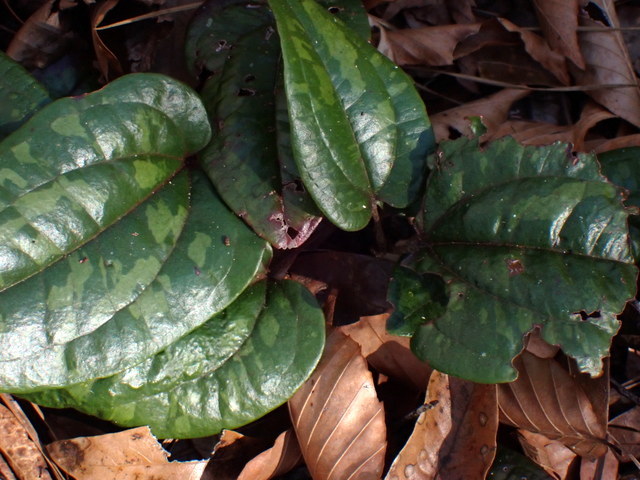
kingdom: Plantae
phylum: Tracheophyta
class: Liliopsida
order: Liliales
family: Smilacaceae
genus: Smilax
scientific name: Smilax pumila
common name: Sarsaparilla-vine
